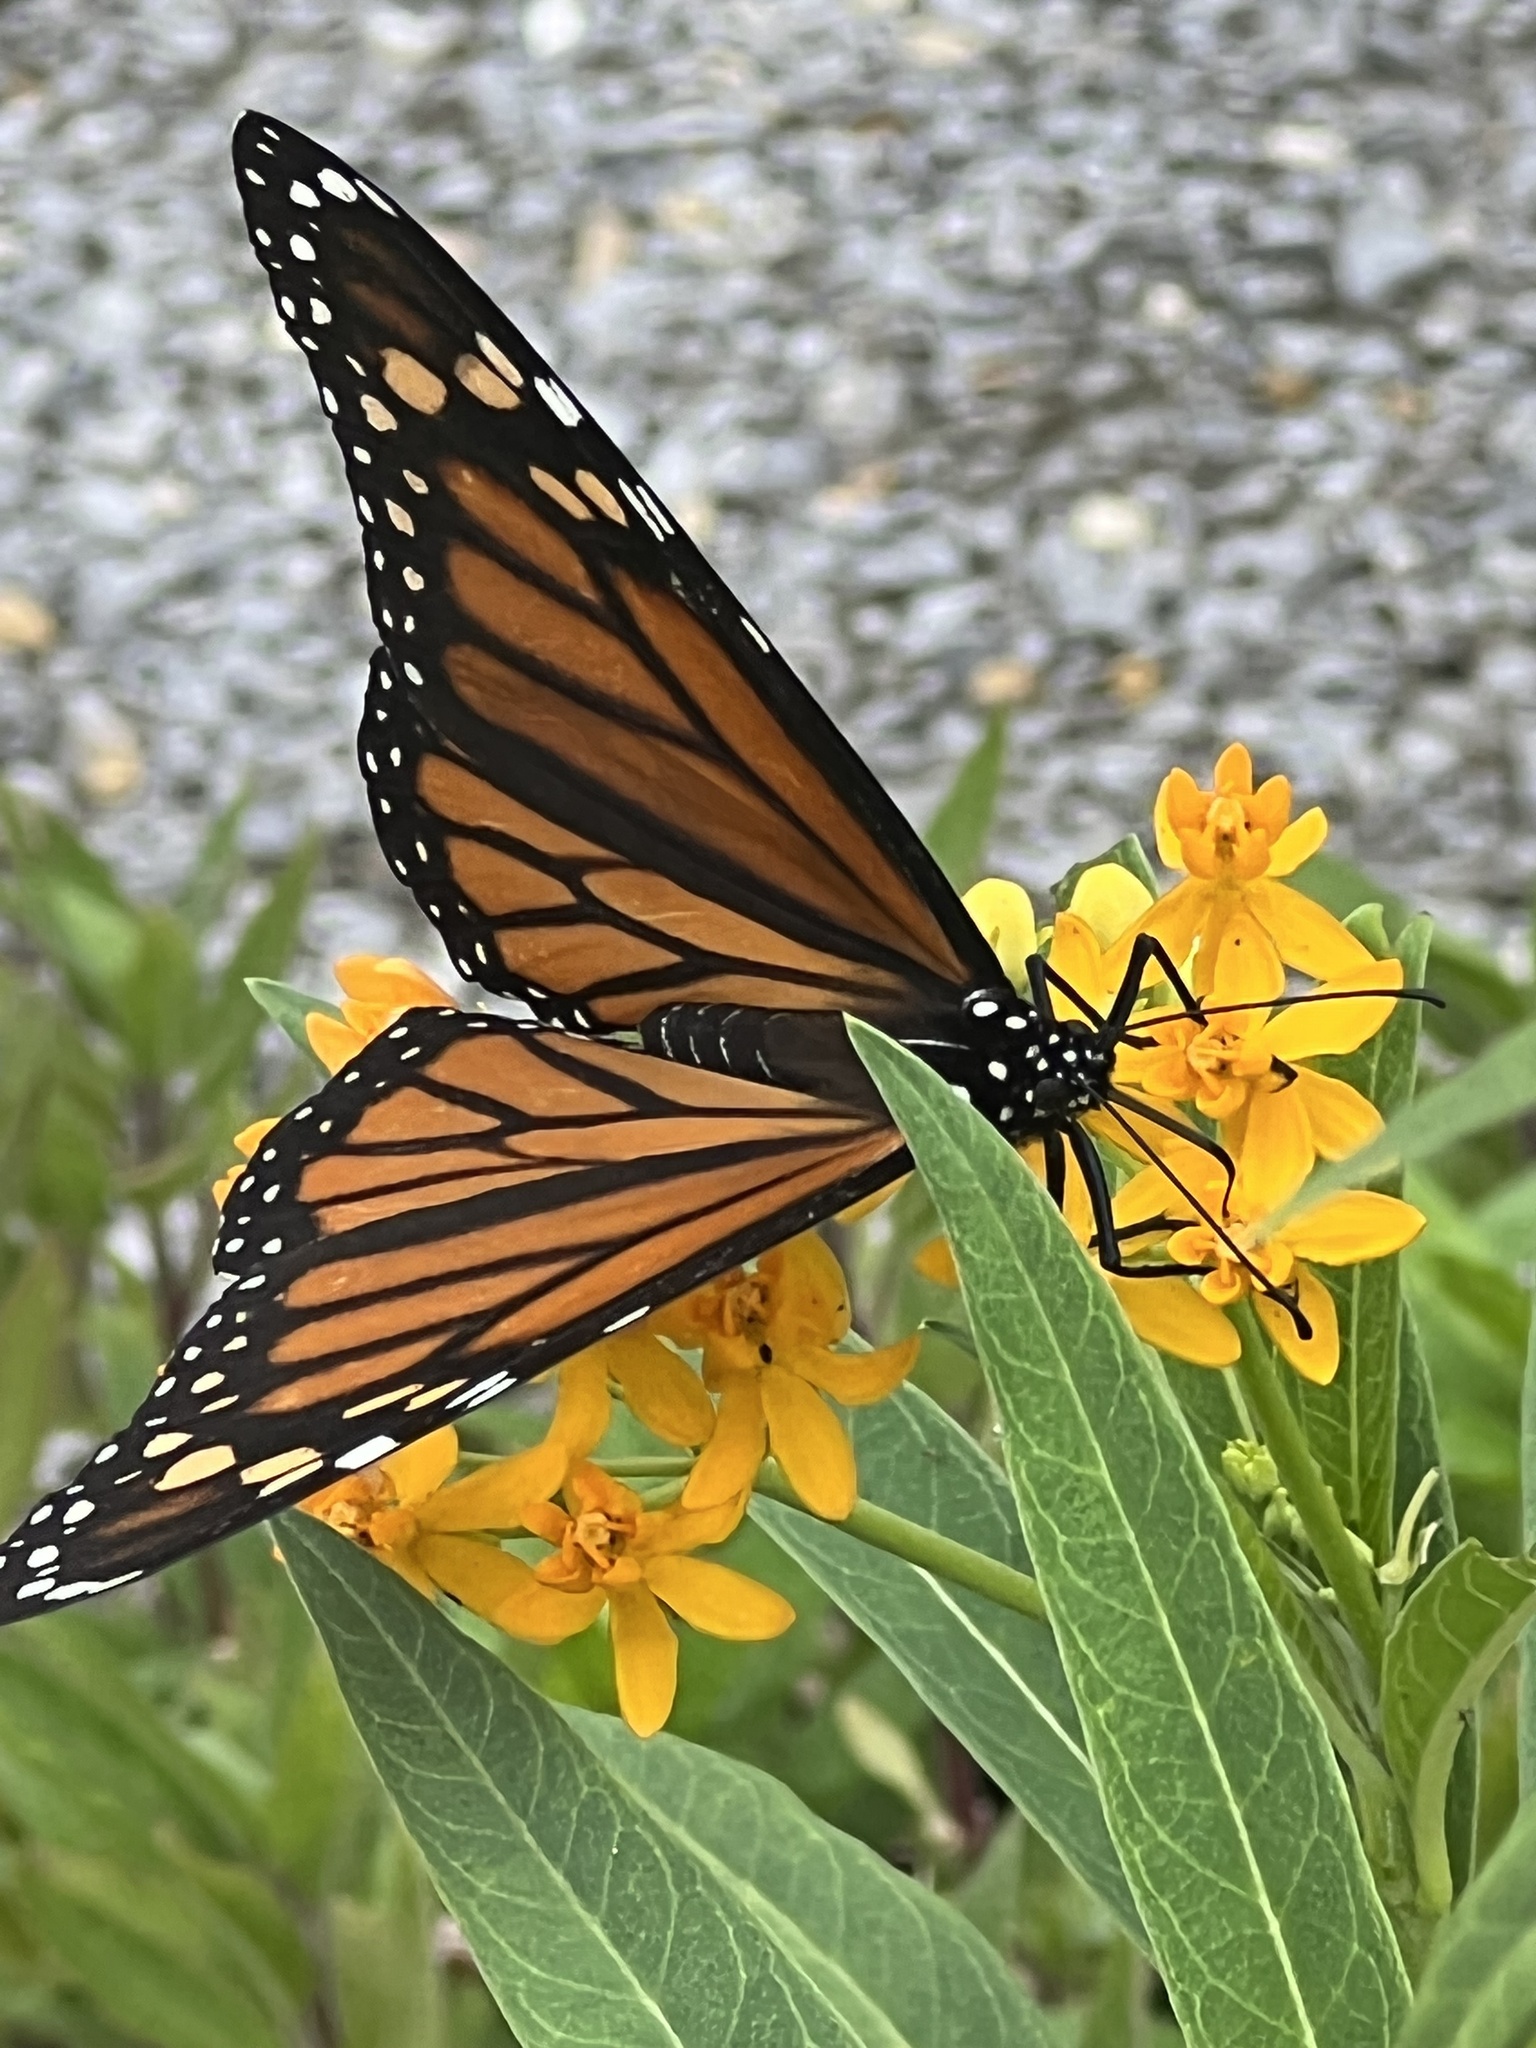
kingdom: Animalia
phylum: Arthropoda
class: Insecta
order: Lepidoptera
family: Nymphalidae
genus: Danaus
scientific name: Danaus plexippus
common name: Monarch
